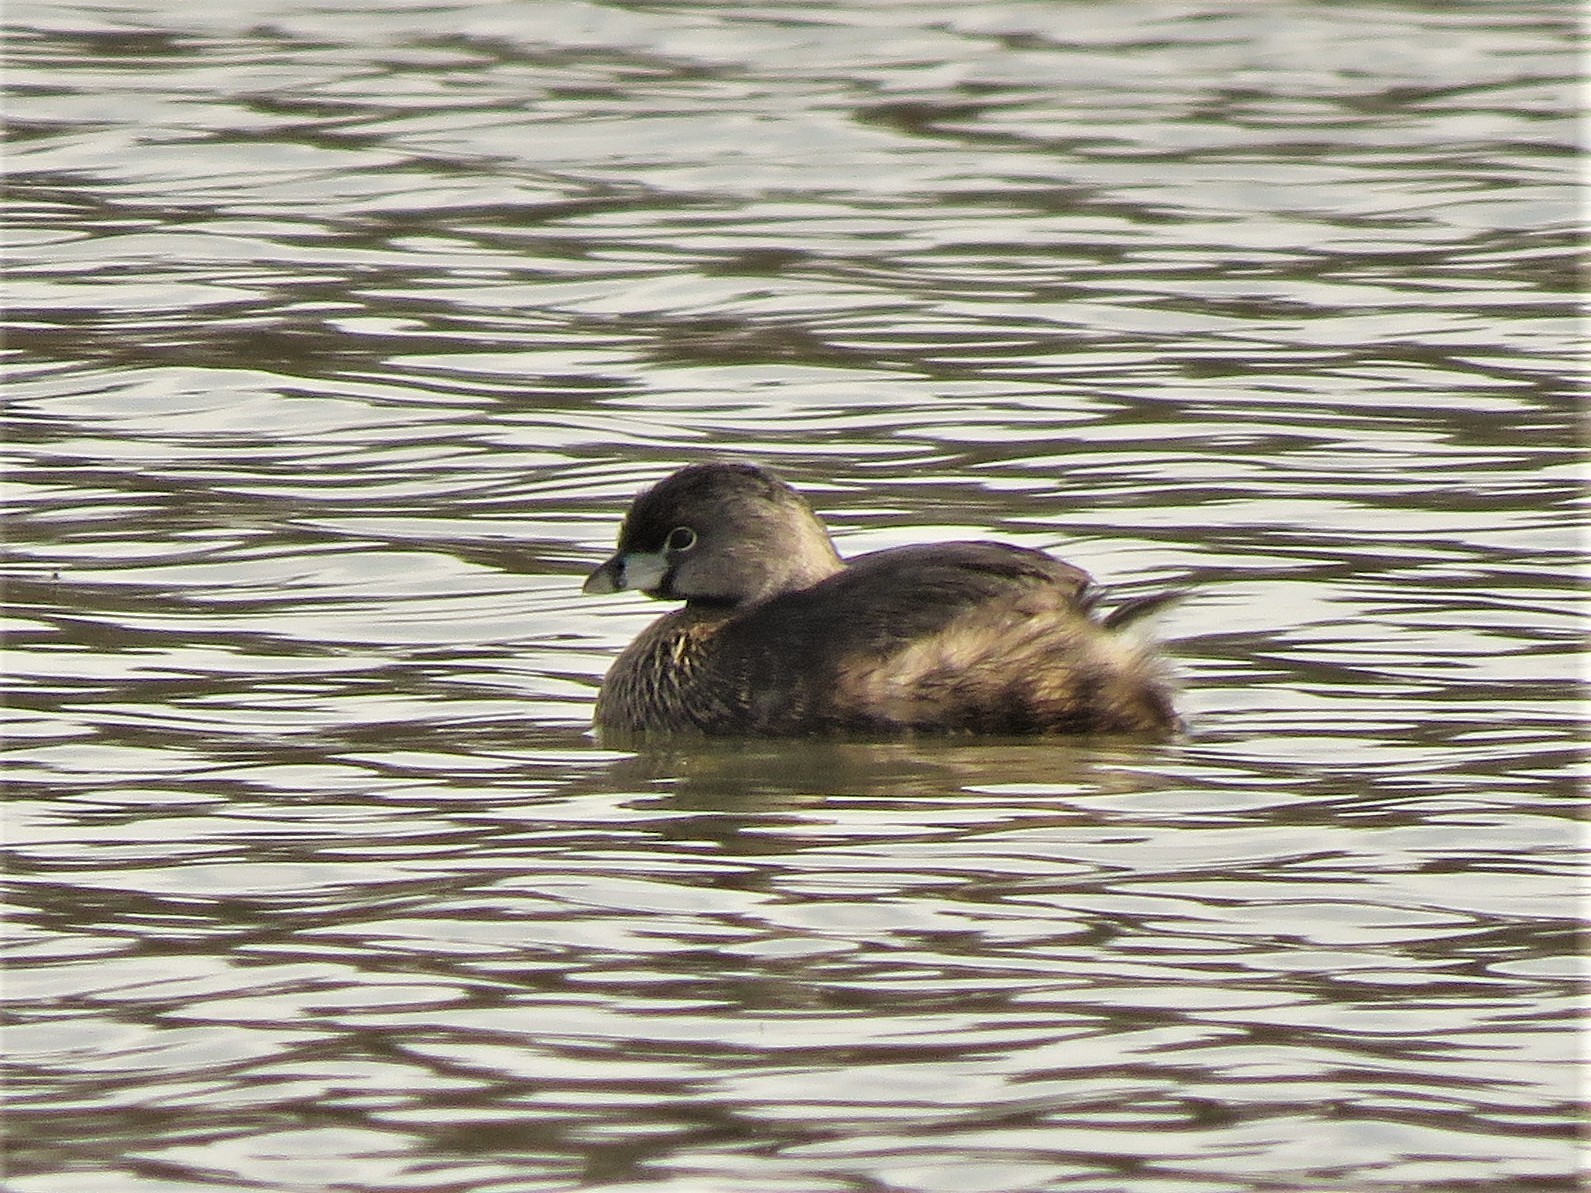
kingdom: Animalia
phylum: Chordata
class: Aves
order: Podicipediformes
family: Podicipedidae
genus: Podilymbus
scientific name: Podilymbus podiceps
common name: Pied-billed grebe
